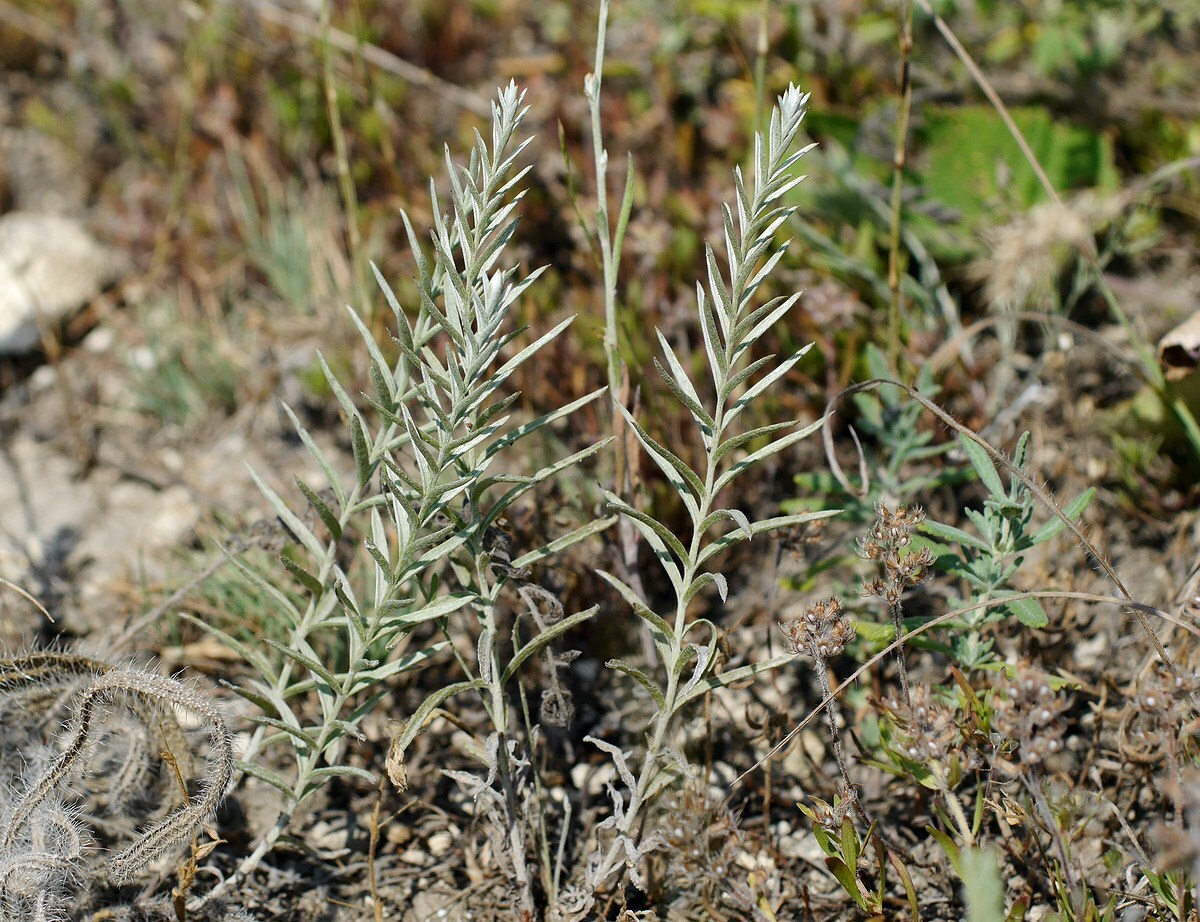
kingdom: Plantae
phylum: Tracheophyta
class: Magnoliopsida
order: Lamiales
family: Orobanchaceae
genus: Cymbaria
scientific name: Cymbaria borysthenica
